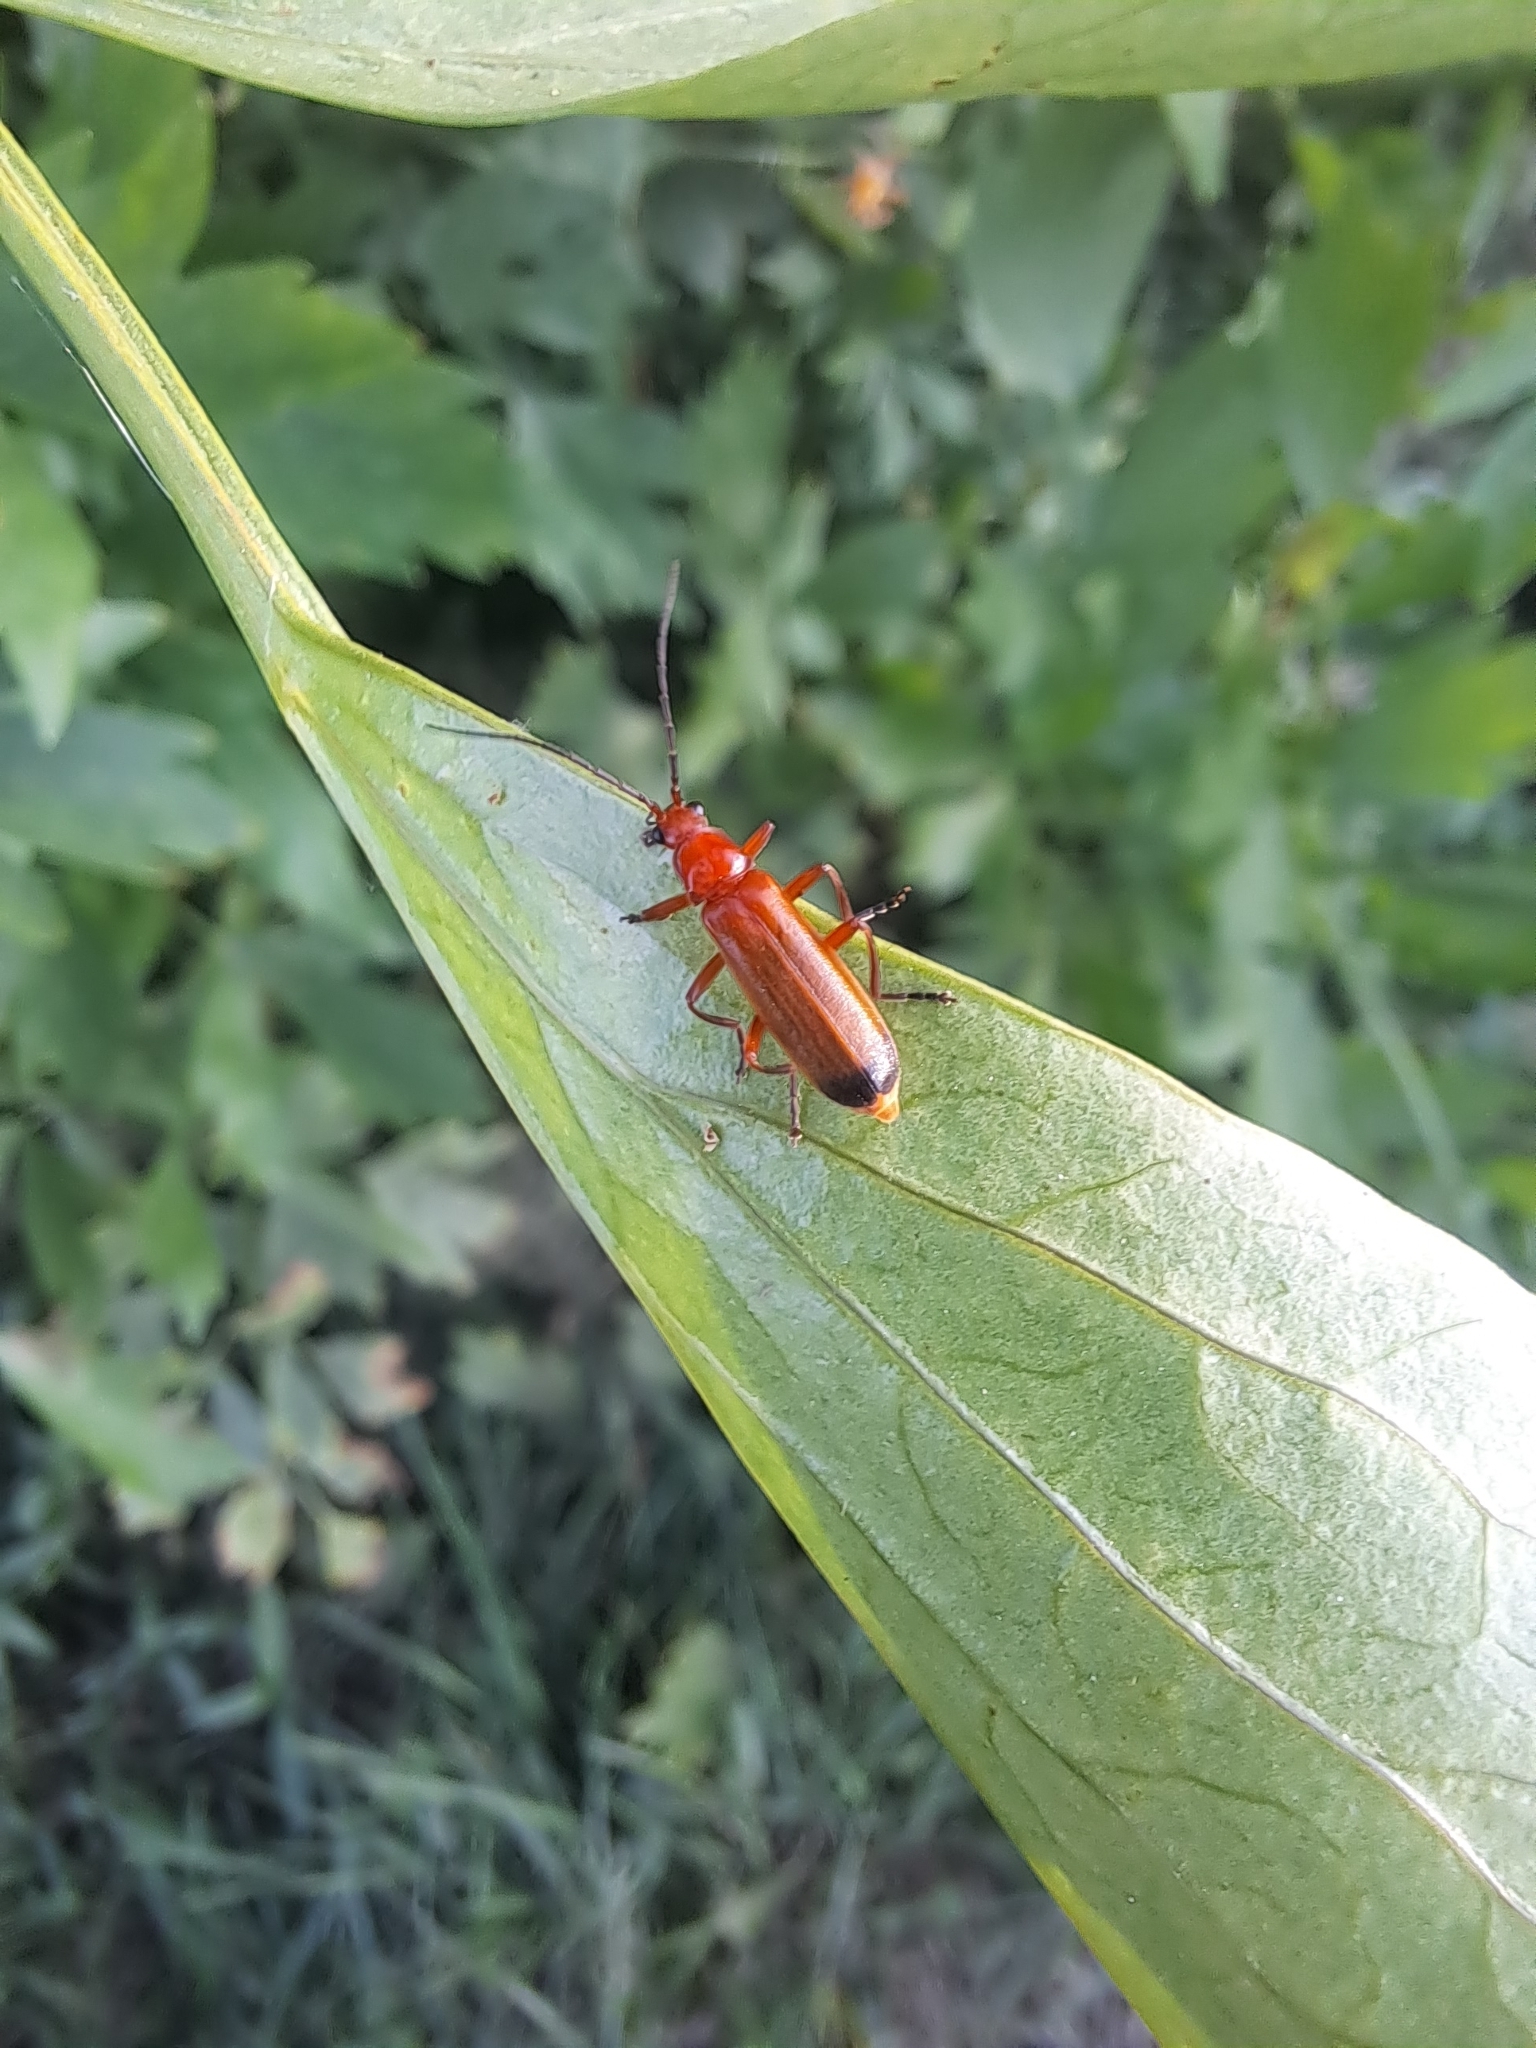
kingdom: Animalia
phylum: Arthropoda
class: Insecta
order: Coleoptera
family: Cantharidae
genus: Rhagonycha
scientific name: Rhagonycha fulva
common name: Common red soldier beetle
